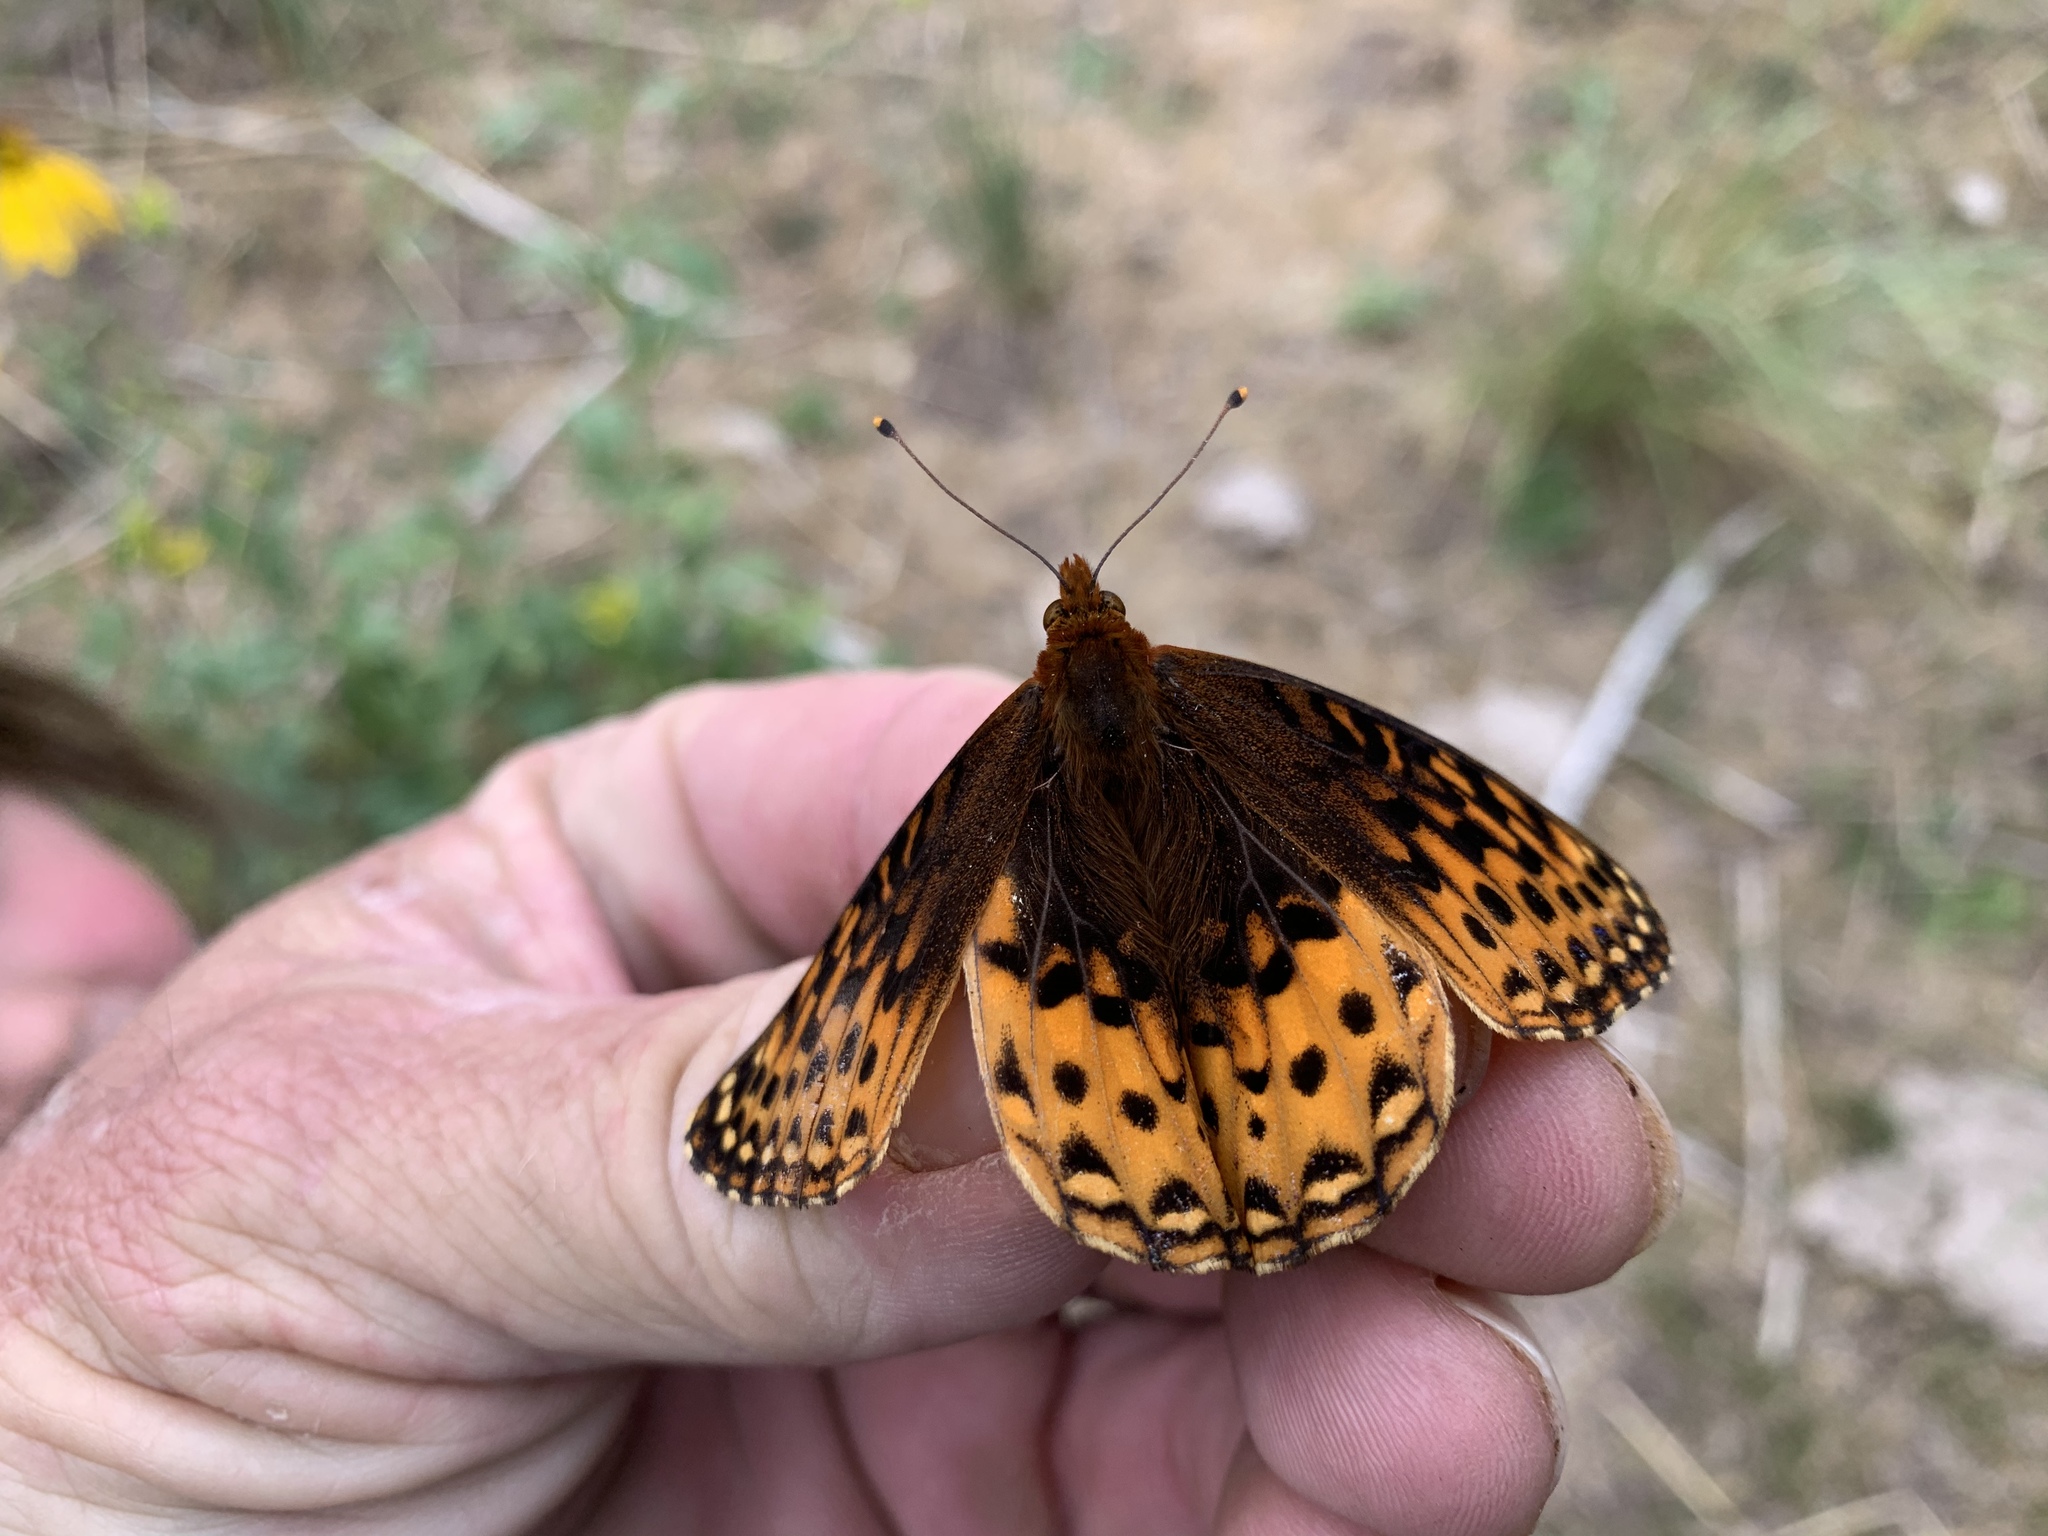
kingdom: Animalia
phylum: Arthropoda
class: Insecta
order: Lepidoptera
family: Nymphalidae
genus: Speyeria
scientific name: Speyeria atlantis
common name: Atlantis fritillary
